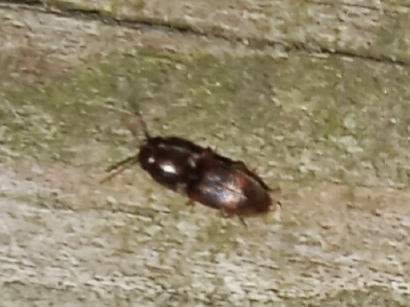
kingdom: Animalia
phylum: Arthropoda
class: Insecta
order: Coleoptera
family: Elateridae
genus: Monocrepidius
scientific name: Monocrepidius bellus
